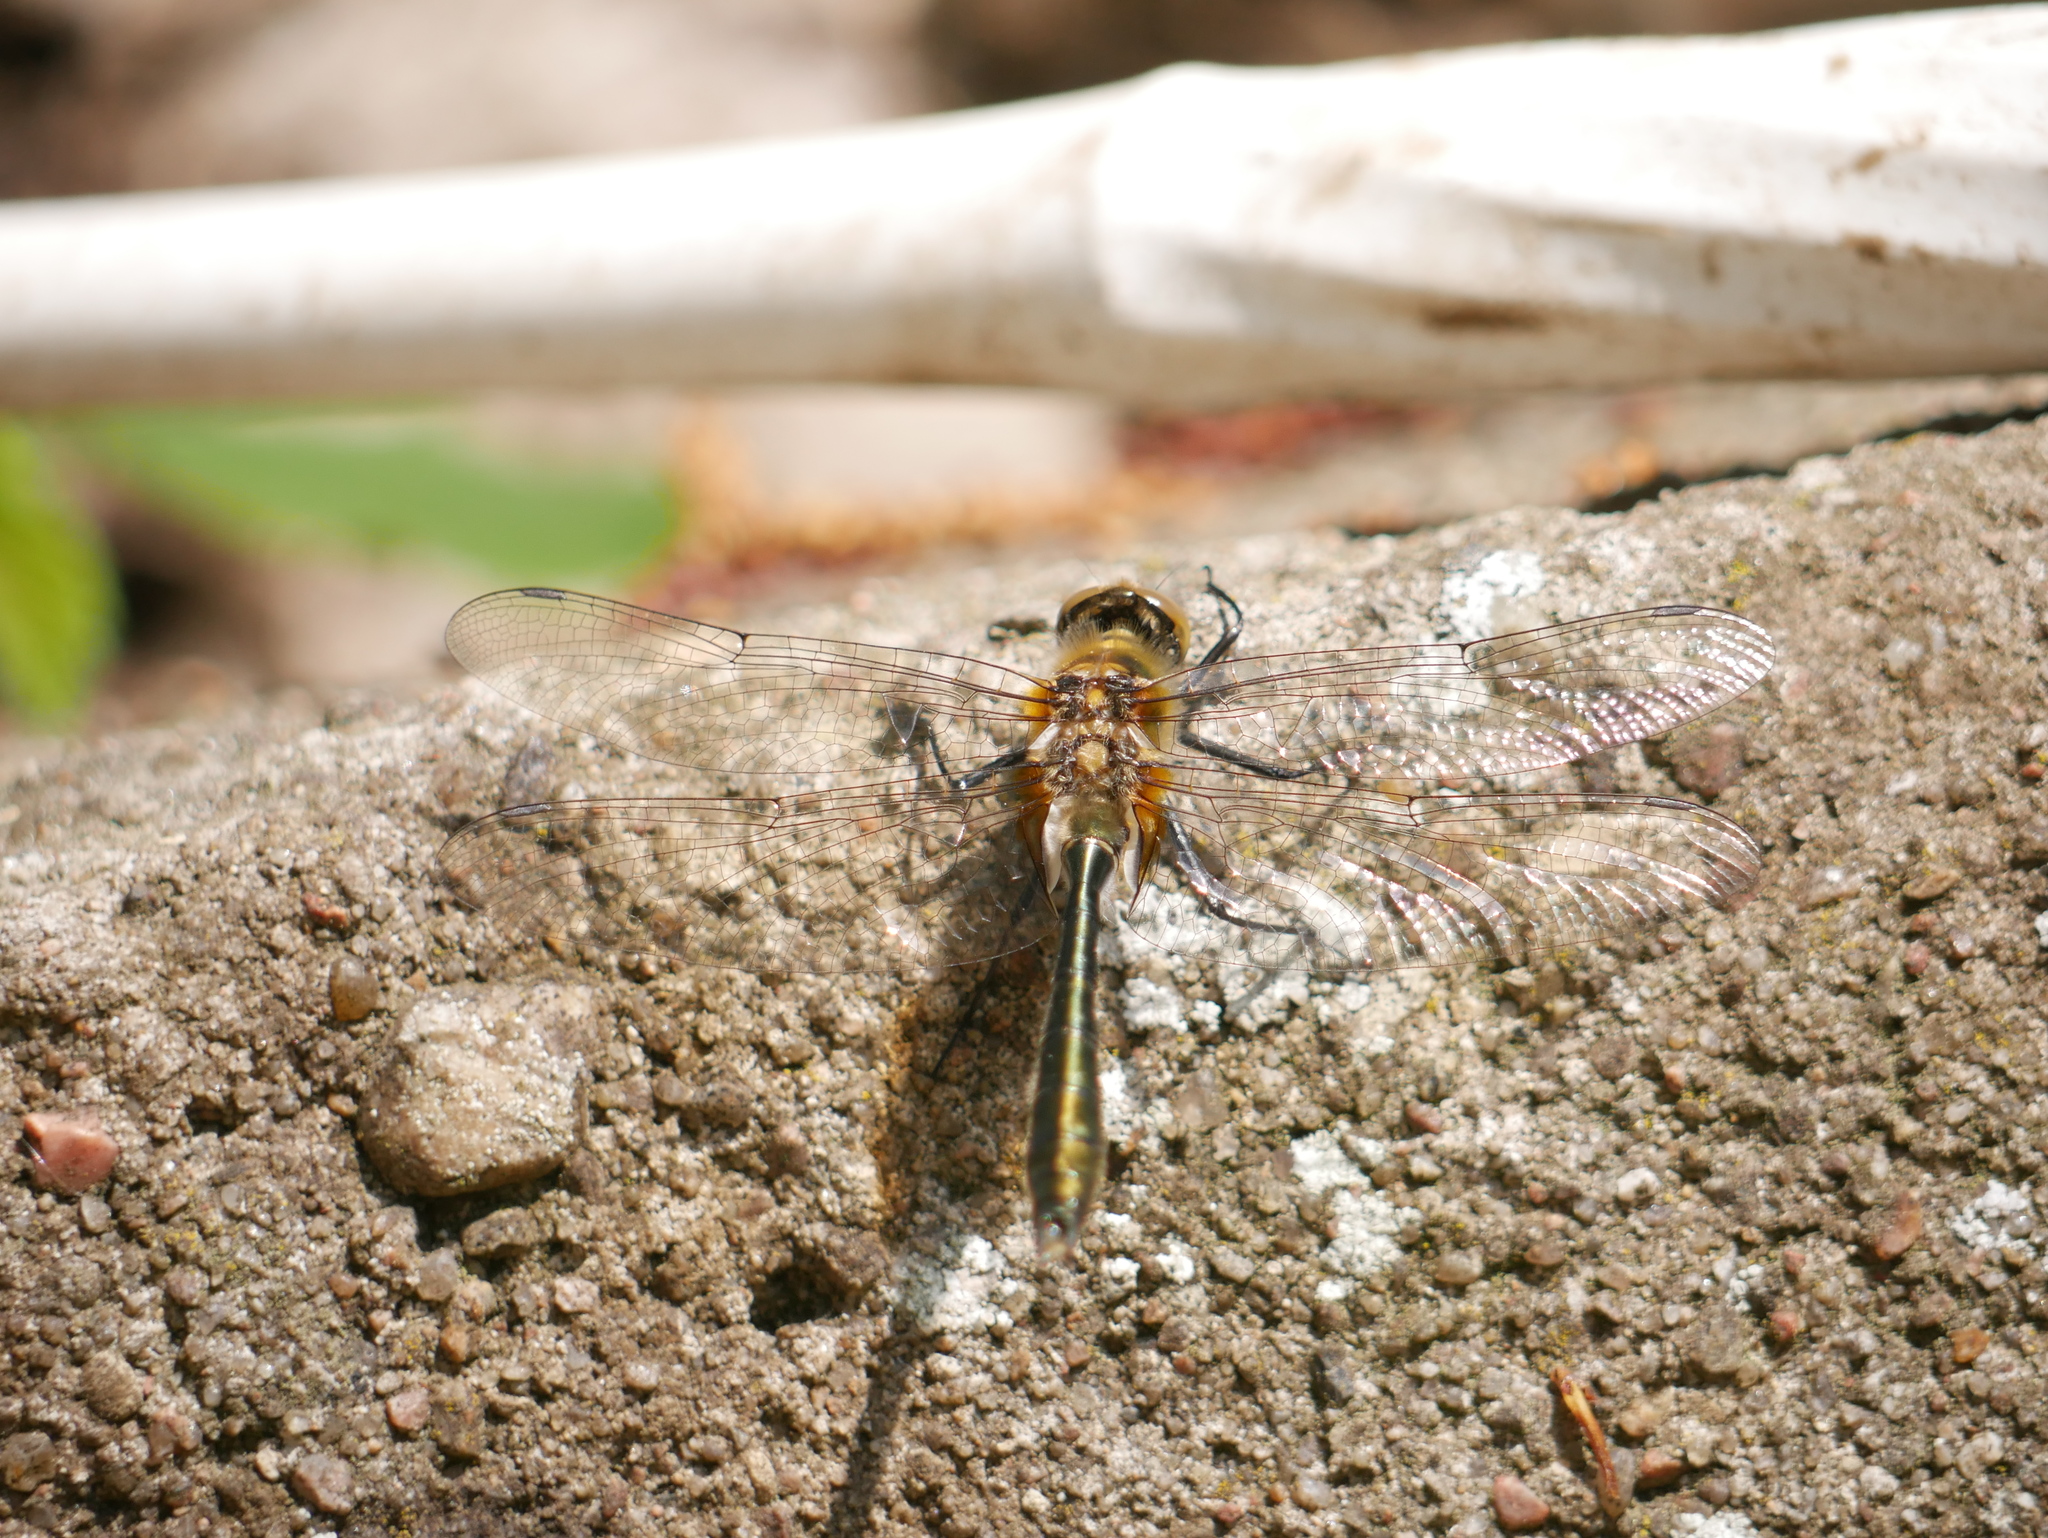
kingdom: Animalia
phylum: Arthropoda
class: Insecta
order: Odonata
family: Corduliidae
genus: Cordulia
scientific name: Cordulia aenea
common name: Downy emerald
